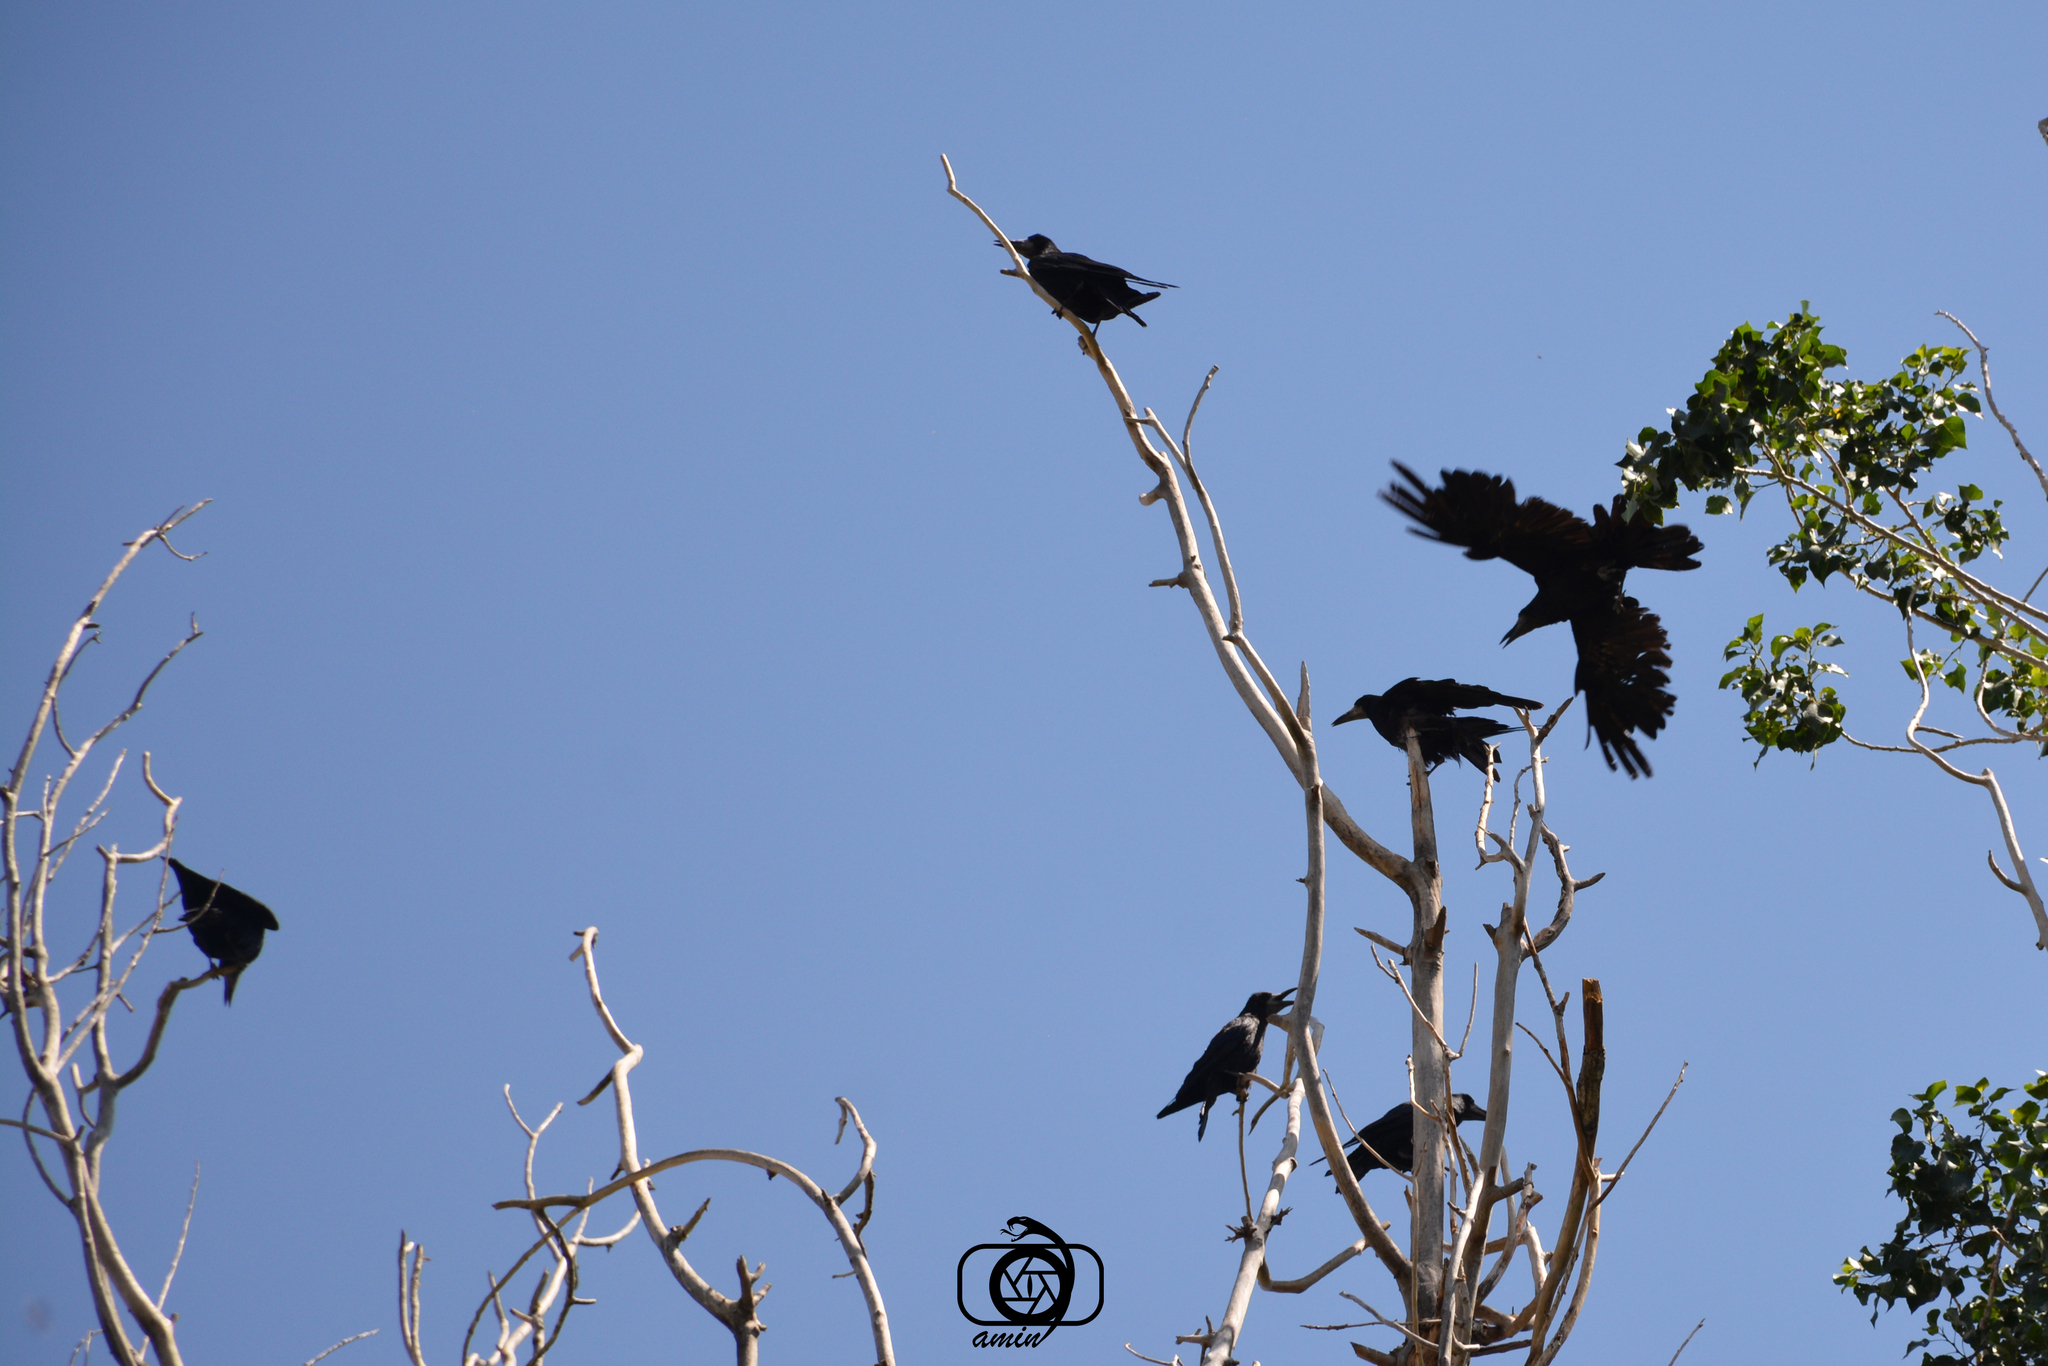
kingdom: Animalia
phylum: Chordata
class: Aves
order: Passeriformes
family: Corvidae
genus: Corvus
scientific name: Corvus frugilegus
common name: Rook
